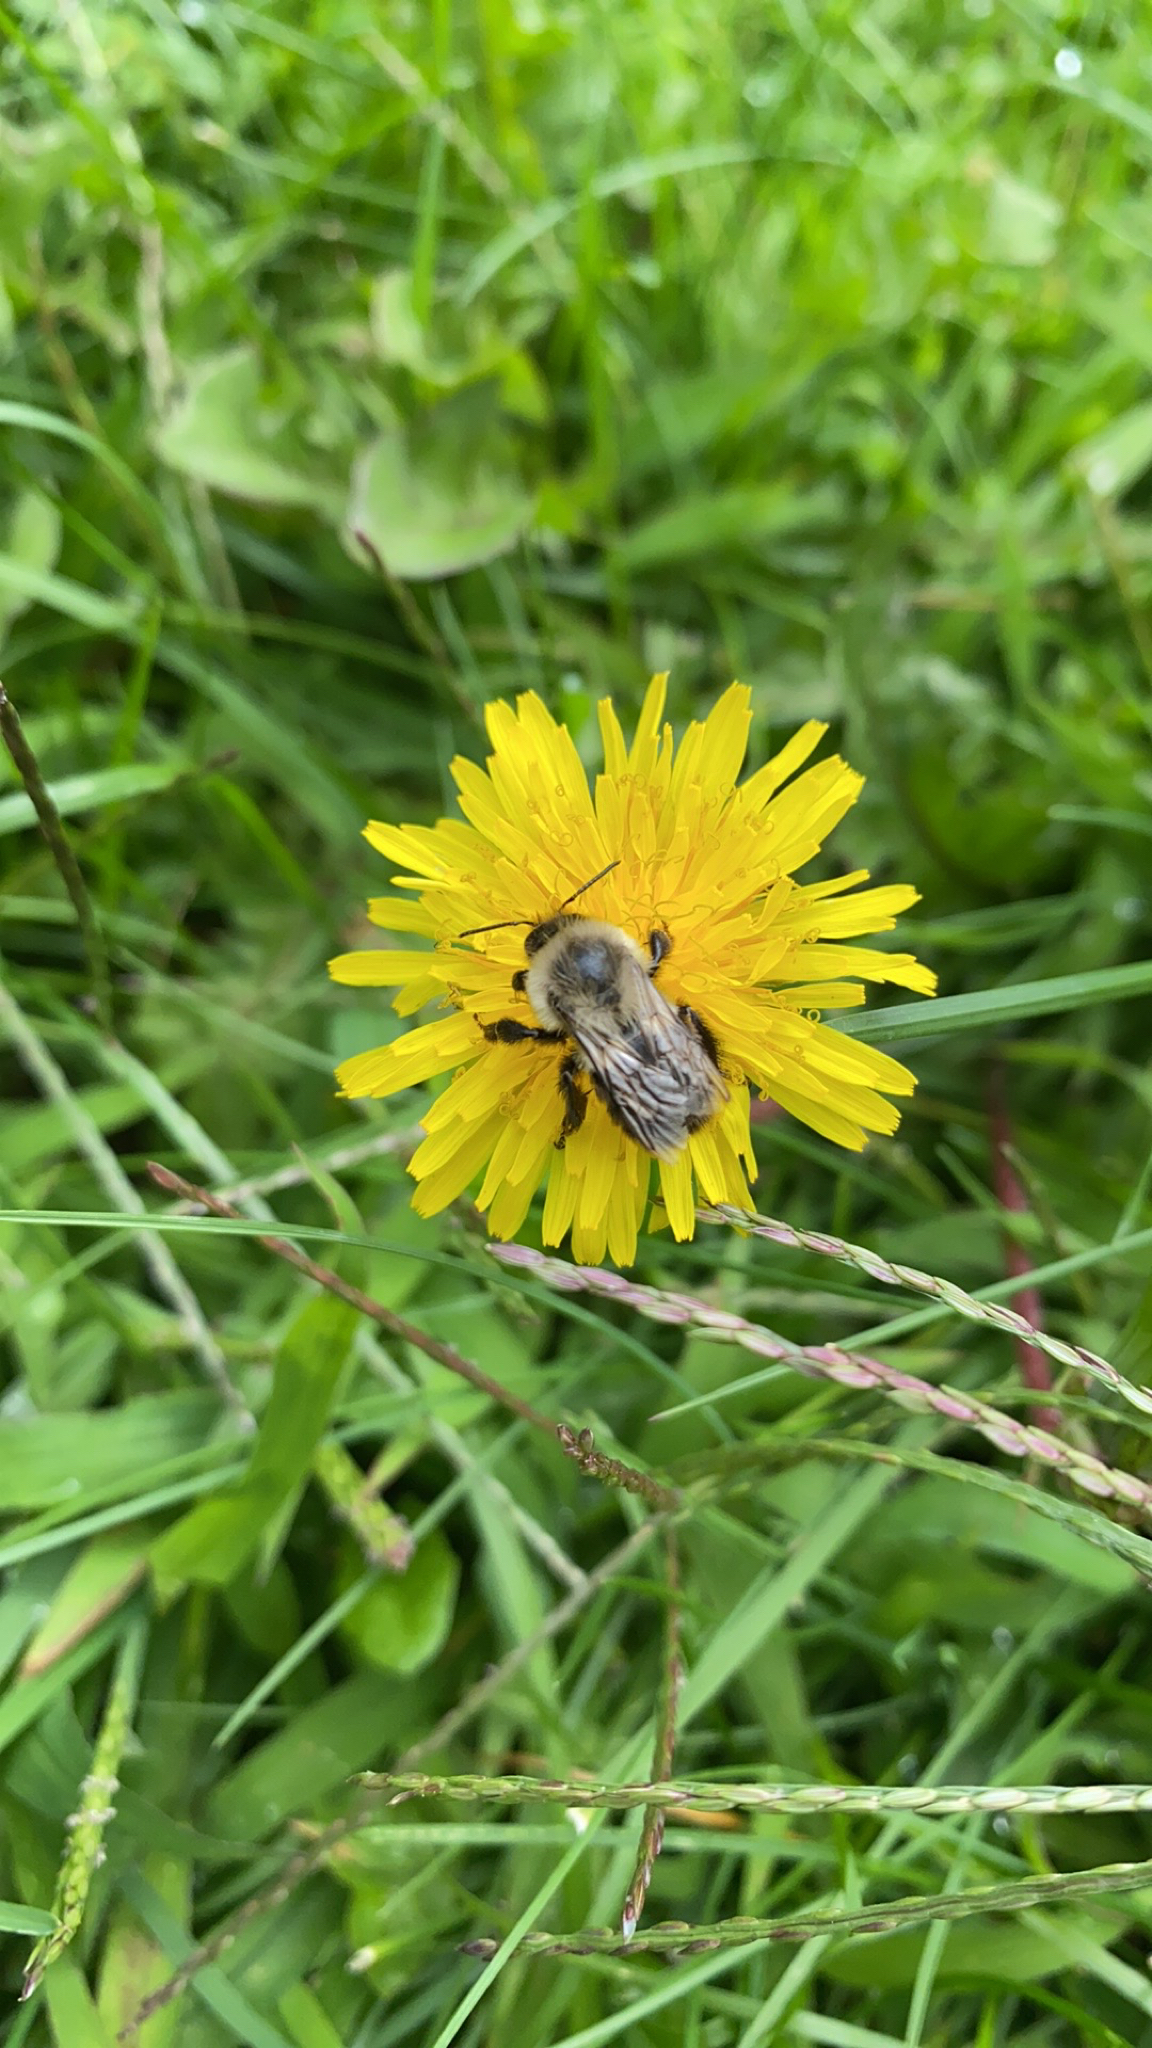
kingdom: Animalia
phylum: Arthropoda
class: Insecta
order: Hymenoptera
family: Apidae
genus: Bombus
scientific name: Bombus impatiens
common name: Common eastern bumble bee
